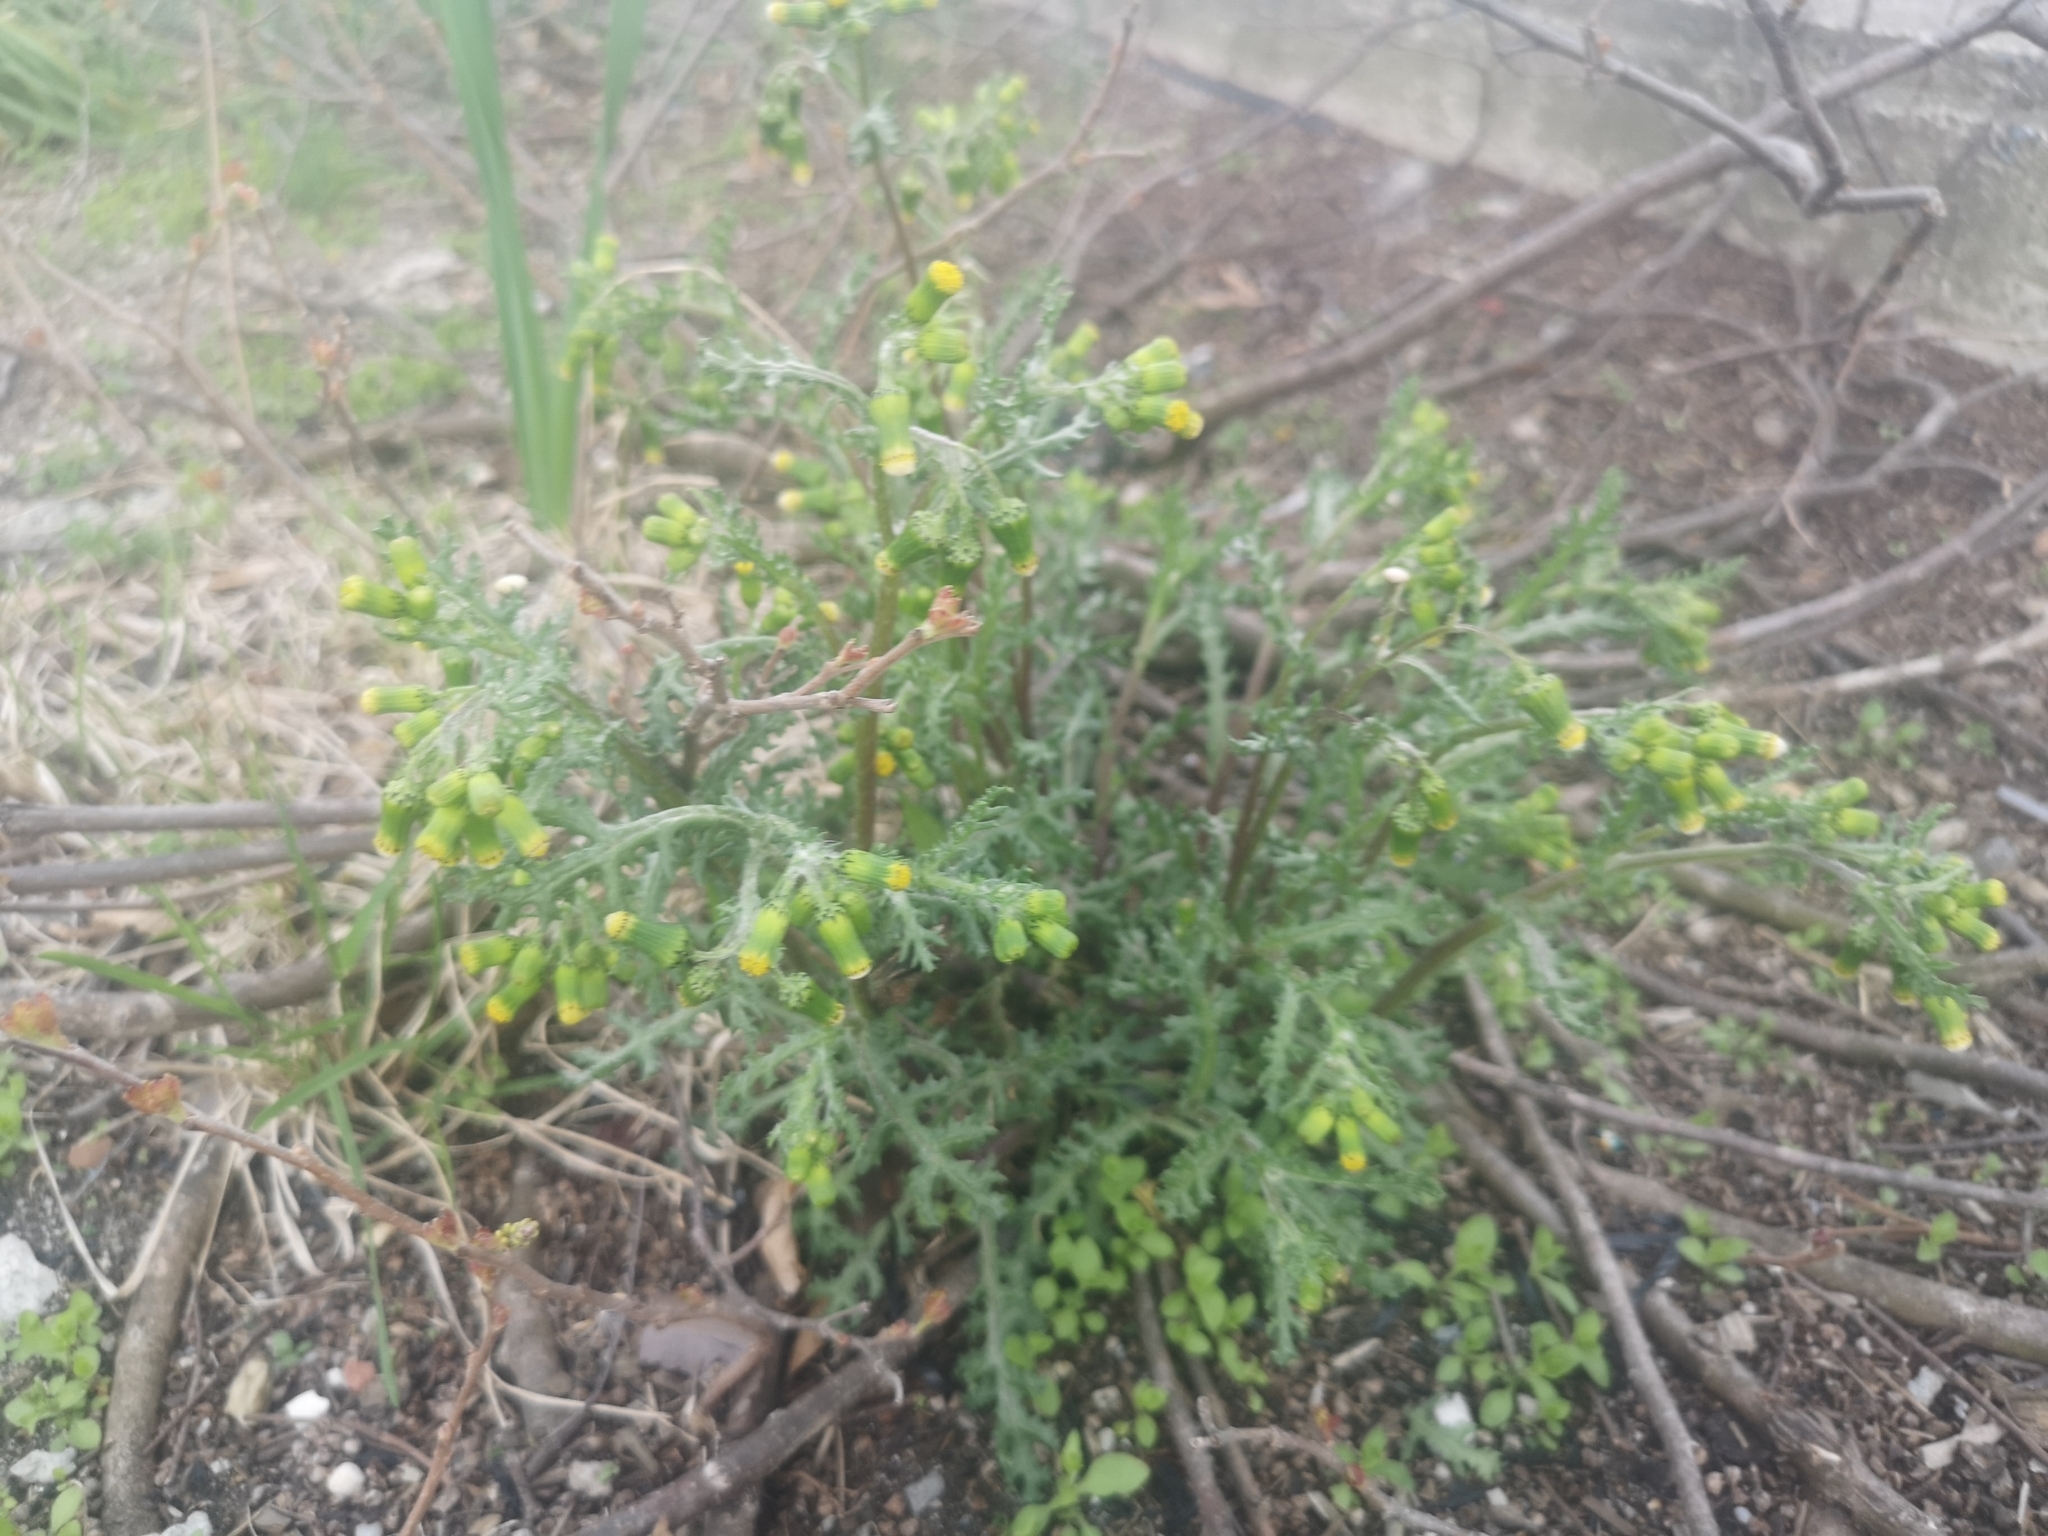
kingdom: Plantae
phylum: Tracheophyta
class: Magnoliopsida
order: Asterales
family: Asteraceae
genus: Senecio
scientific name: Senecio vulgaris
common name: Old-man-in-the-spring
